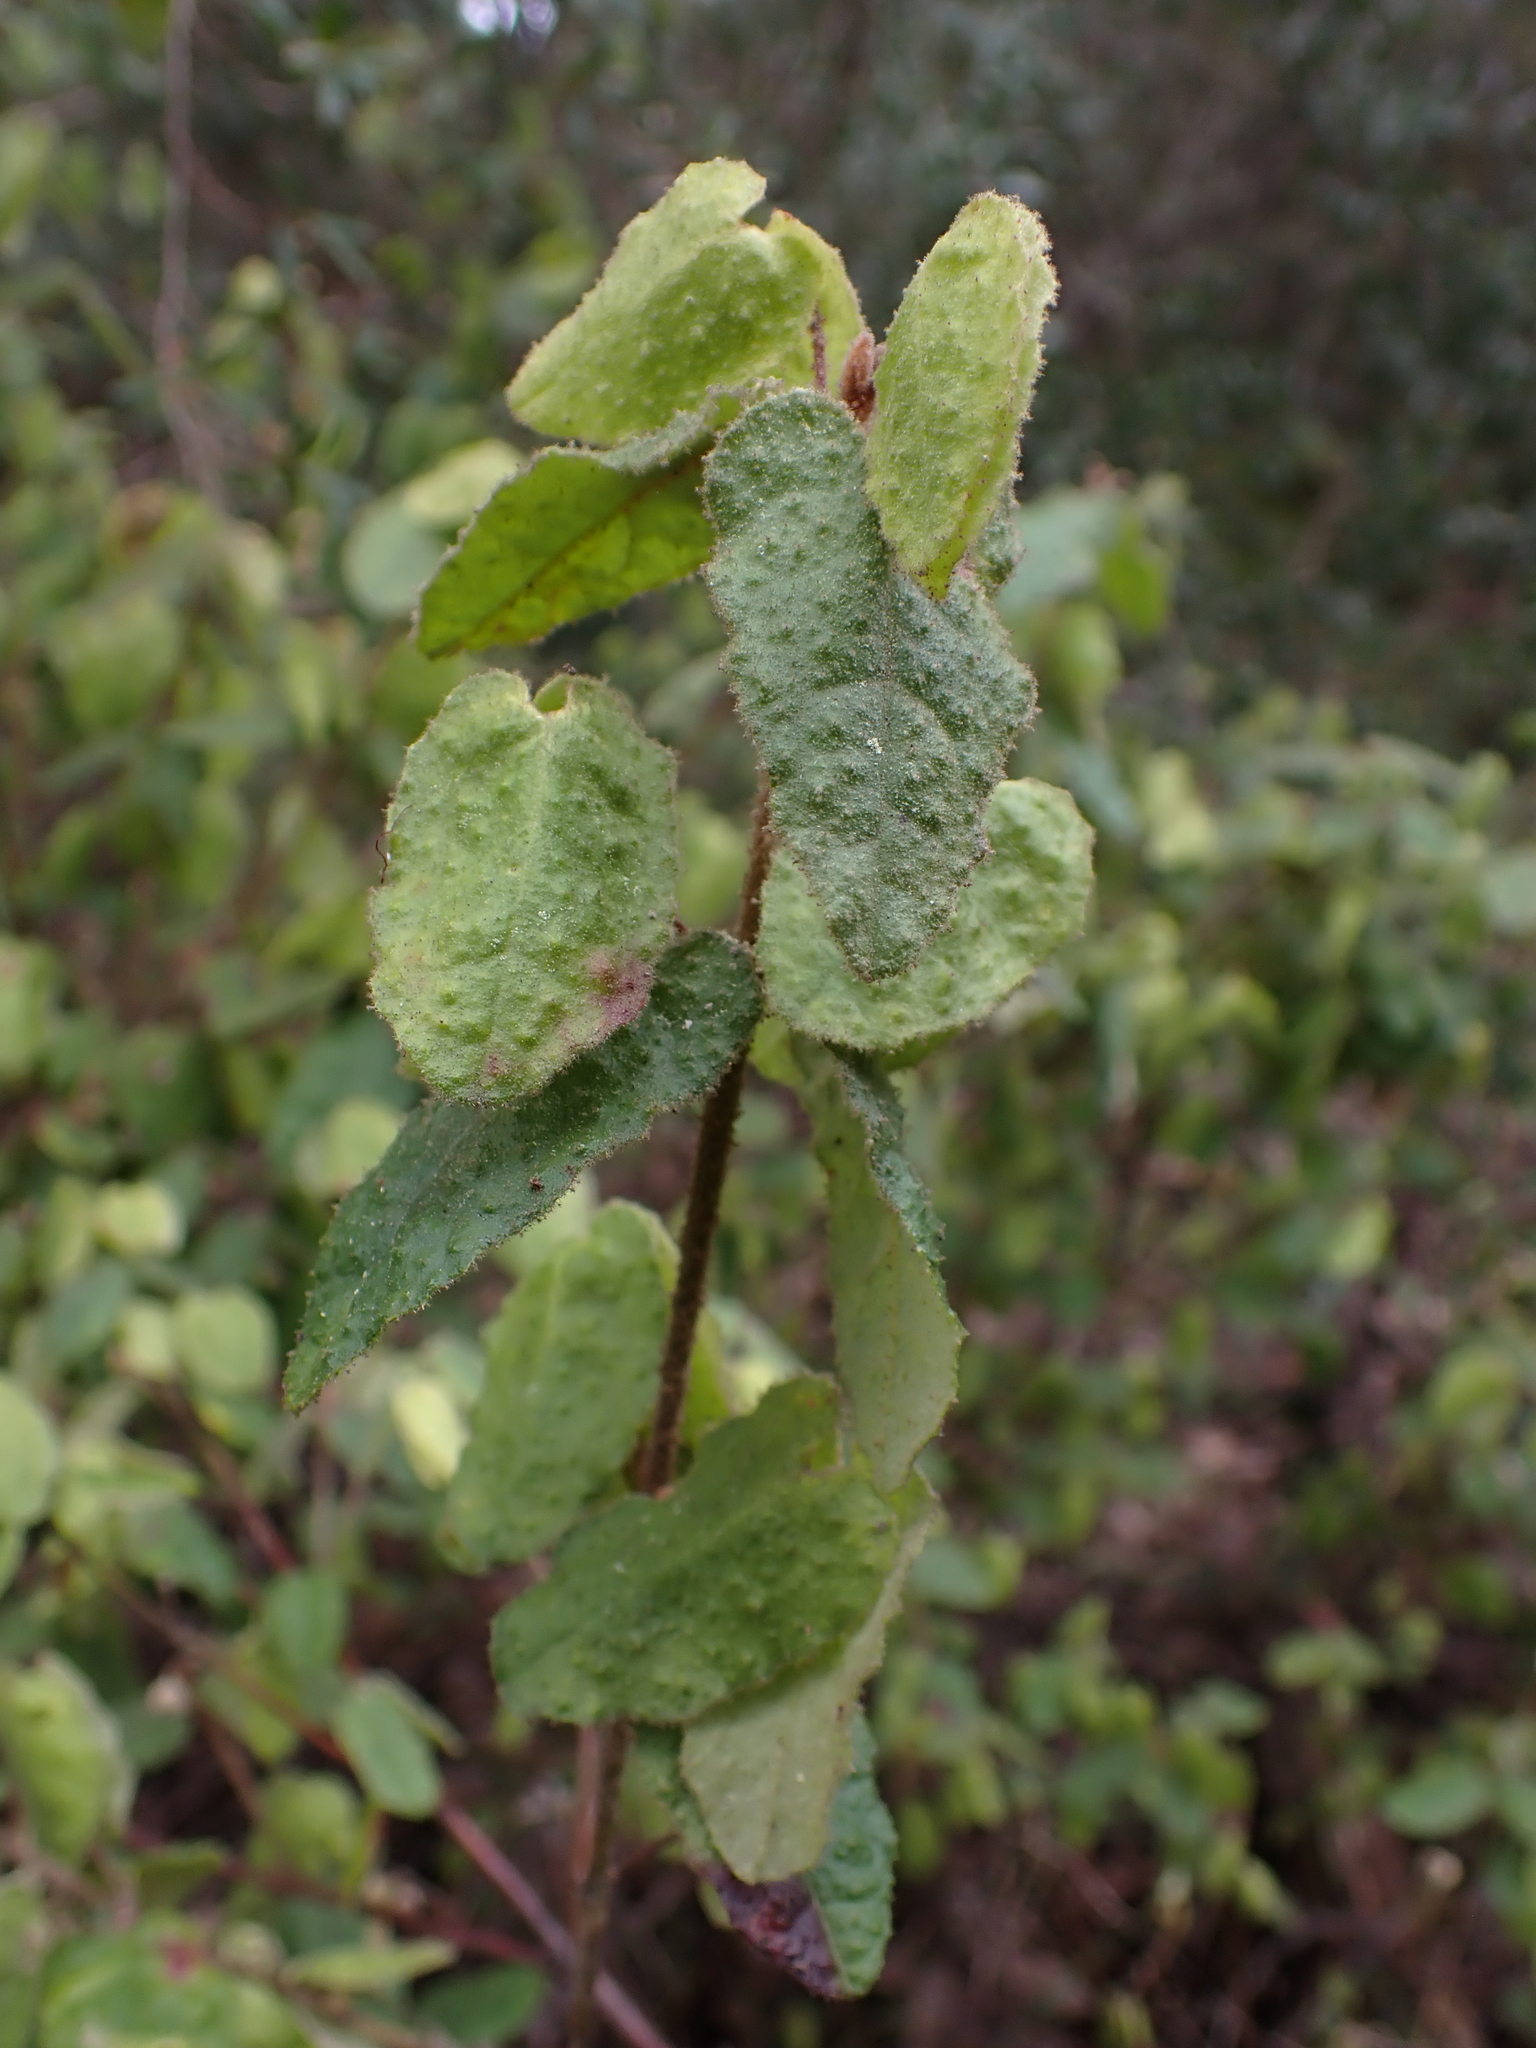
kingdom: Plantae
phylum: Tracheophyta
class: Magnoliopsida
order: Sapindales
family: Rutaceae
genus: Correa
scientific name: Correa reflexa
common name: Common correa
